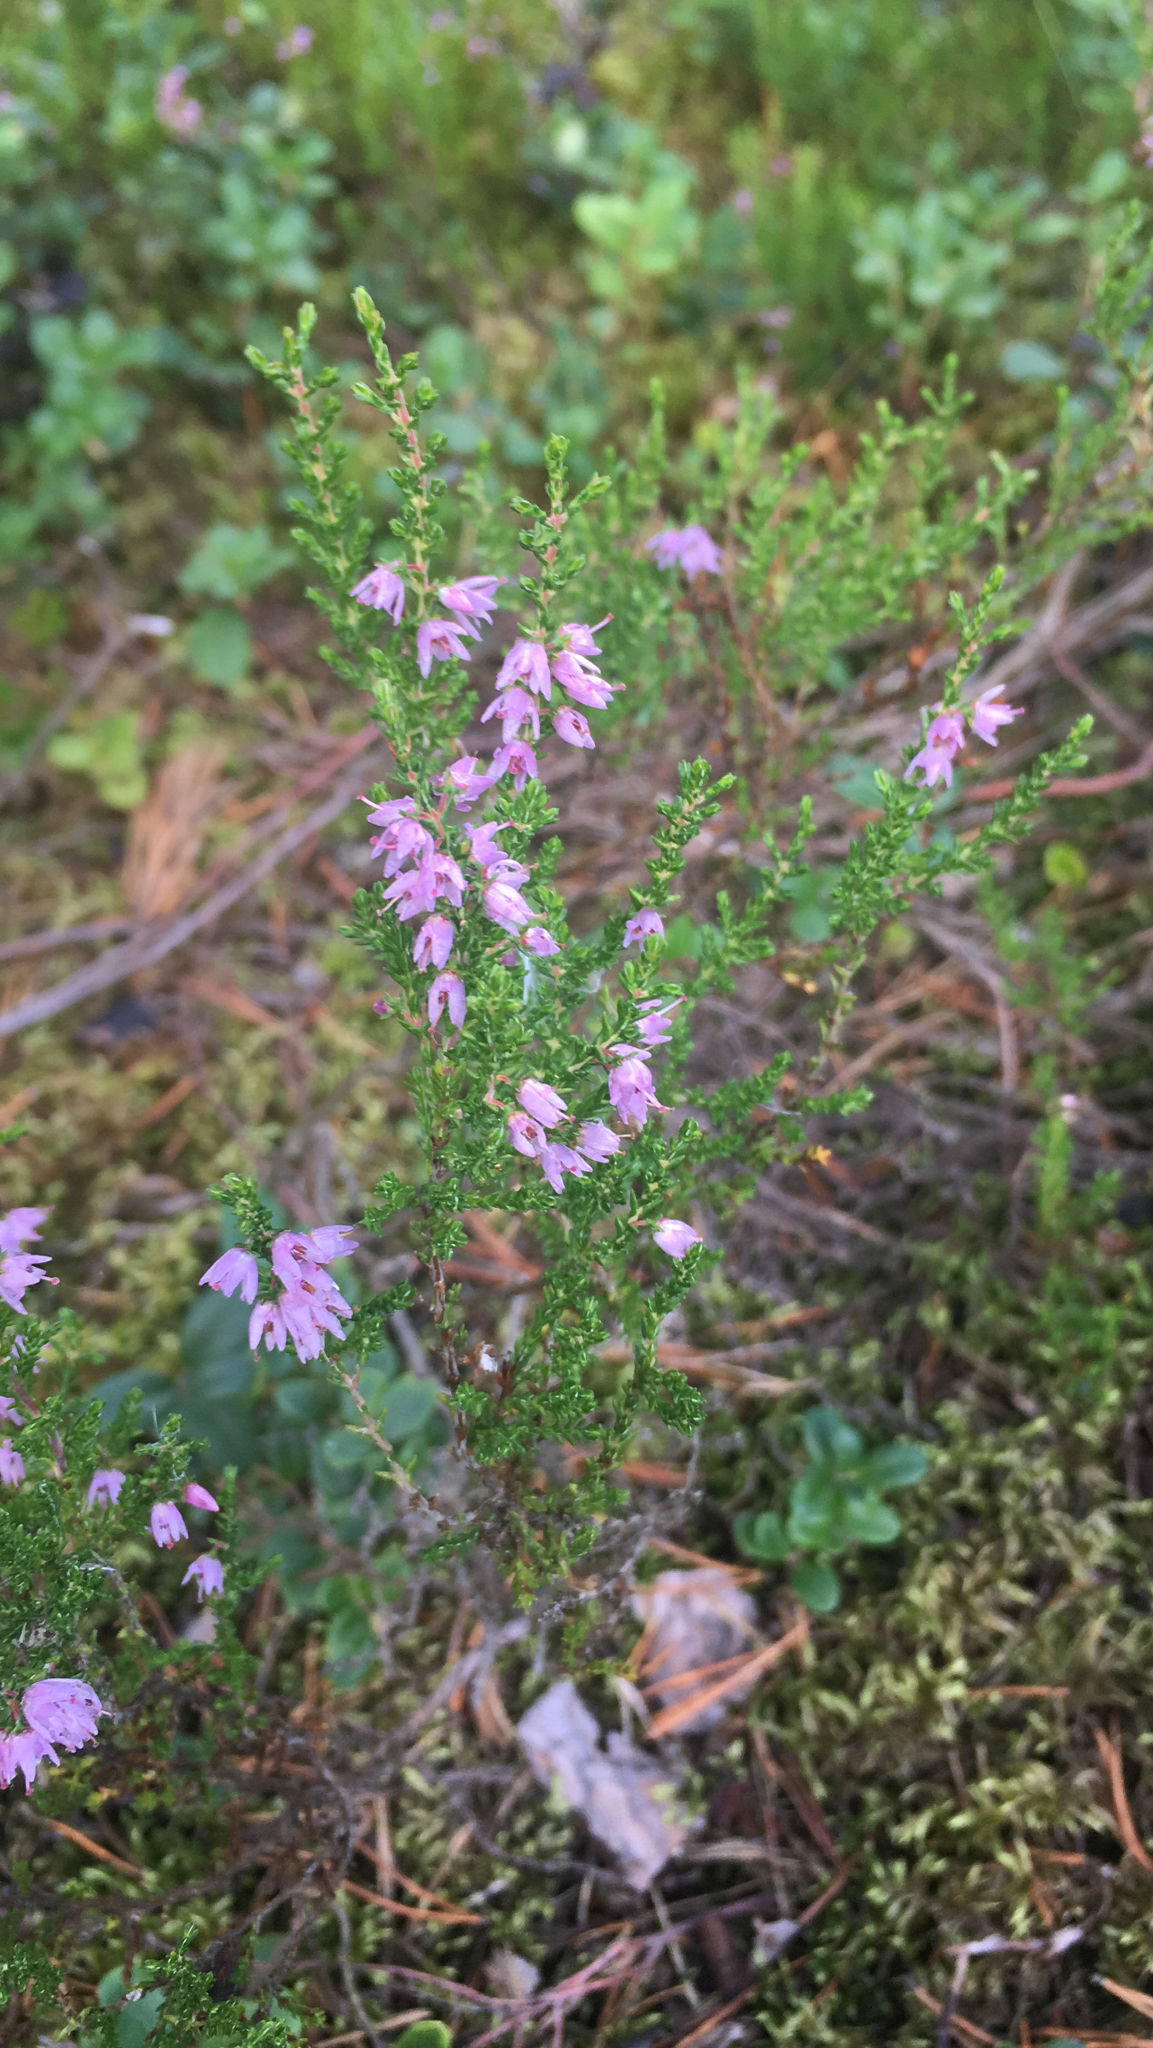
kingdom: Plantae
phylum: Tracheophyta
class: Magnoliopsida
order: Ericales
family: Ericaceae
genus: Calluna
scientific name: Calluna vulgaris
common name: Heather
